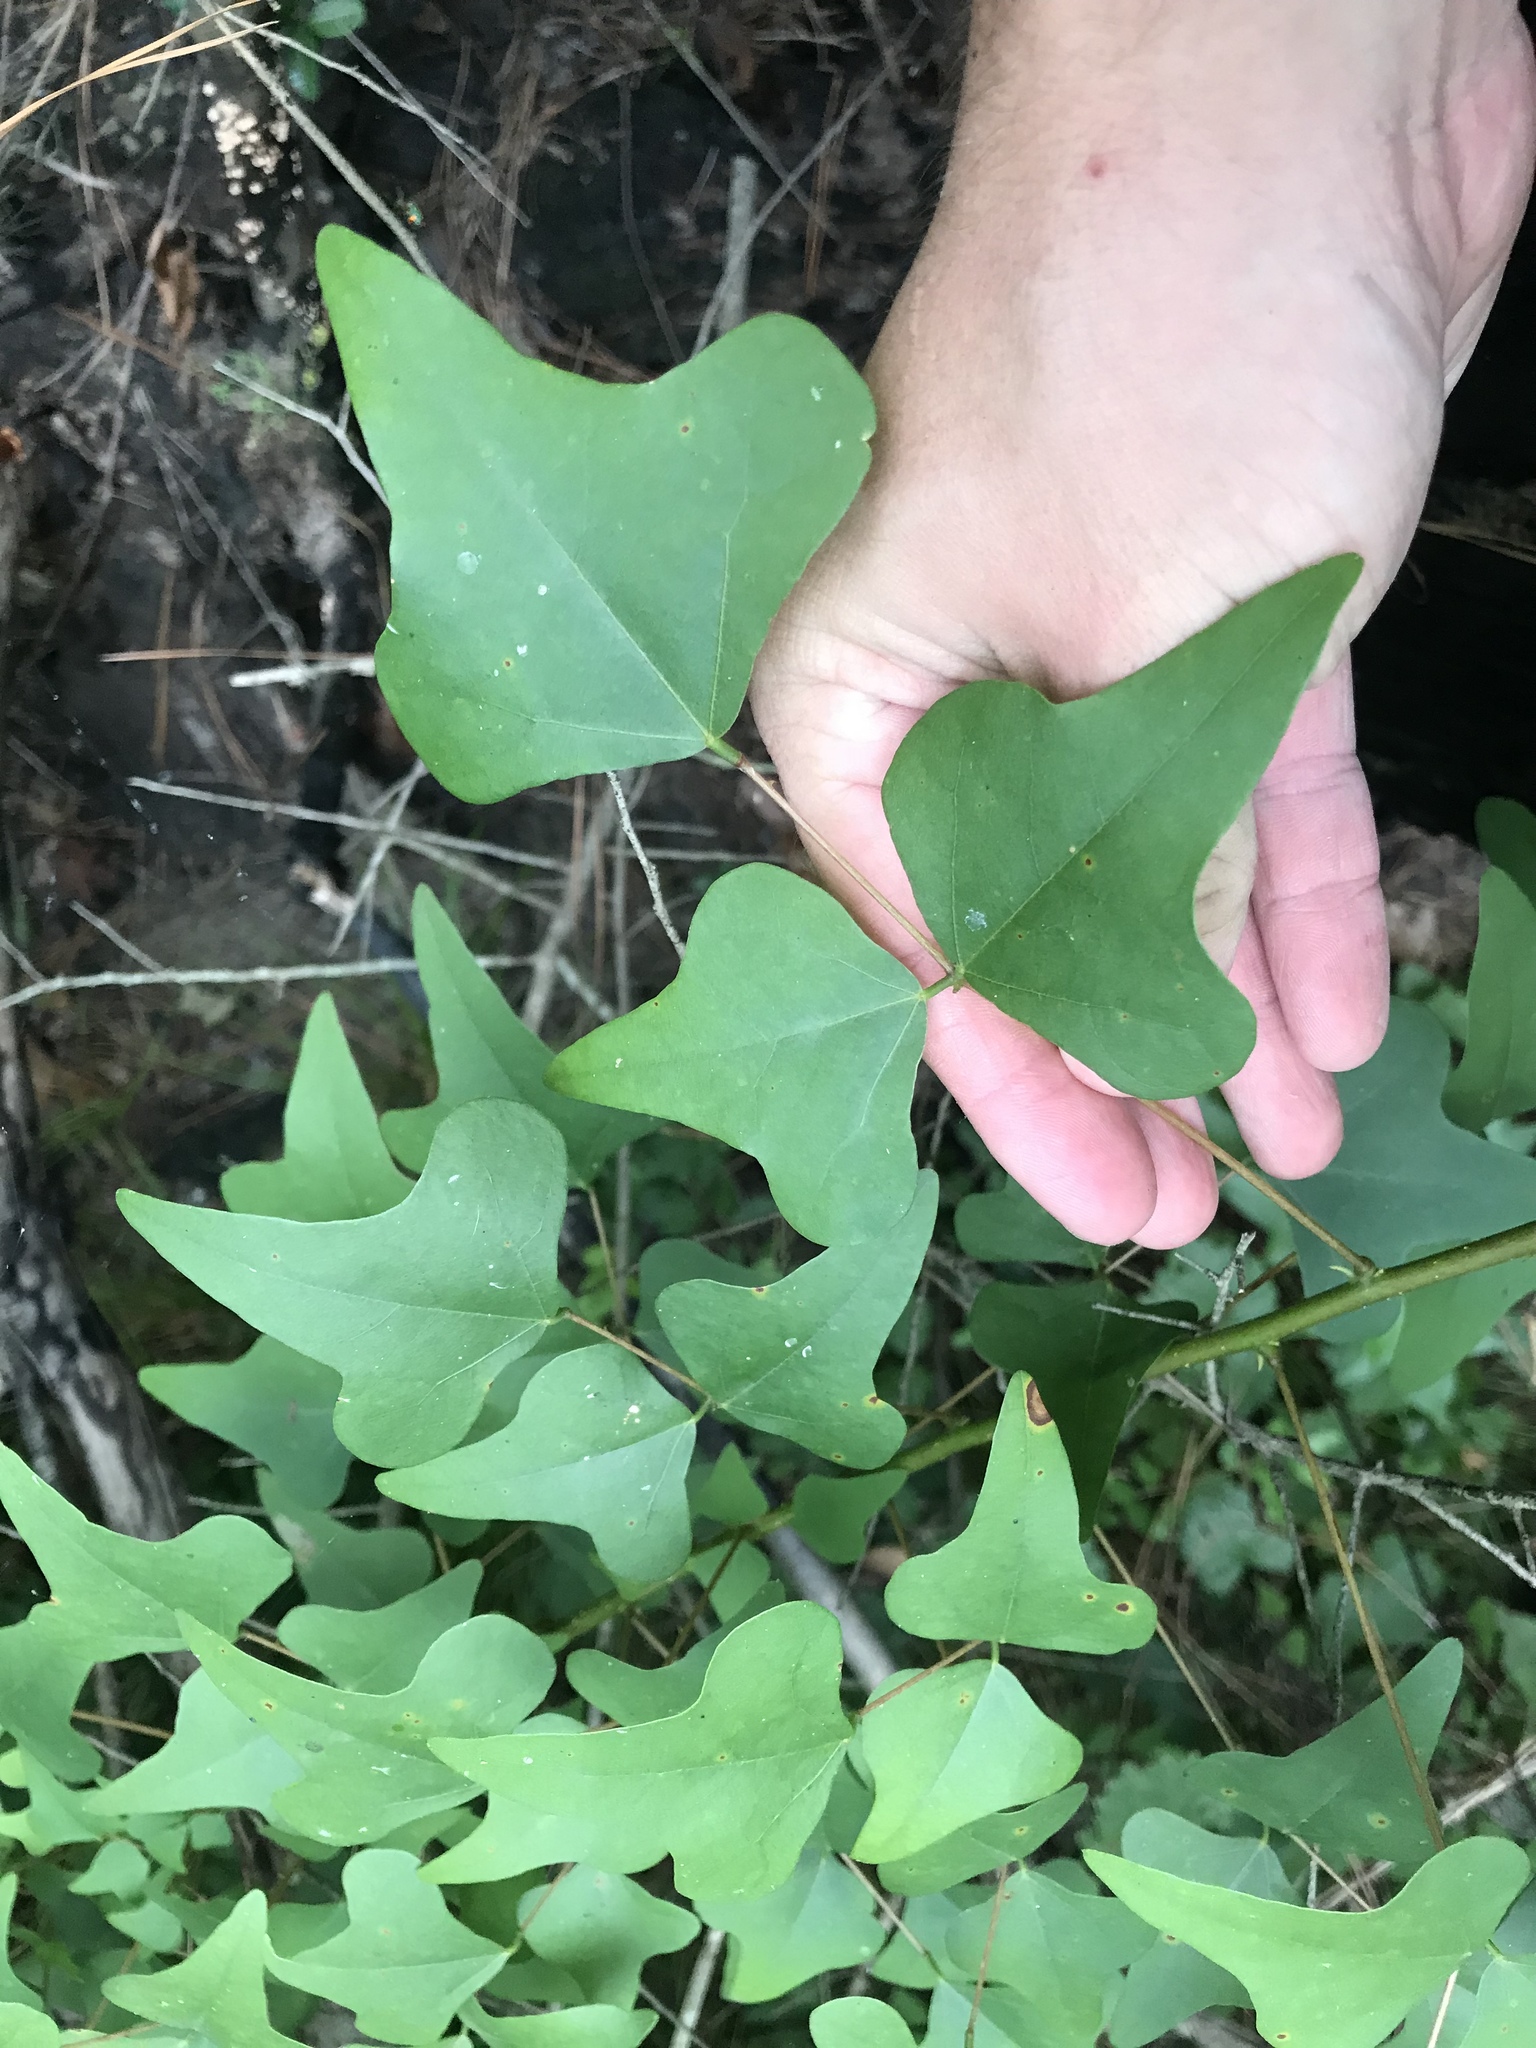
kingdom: Plantae
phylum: Tracheophyta
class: Magnoliopsida
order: Fabales
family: Fabaceae
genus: Erythrina
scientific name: Erythrina herbacea
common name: Coral-bean
